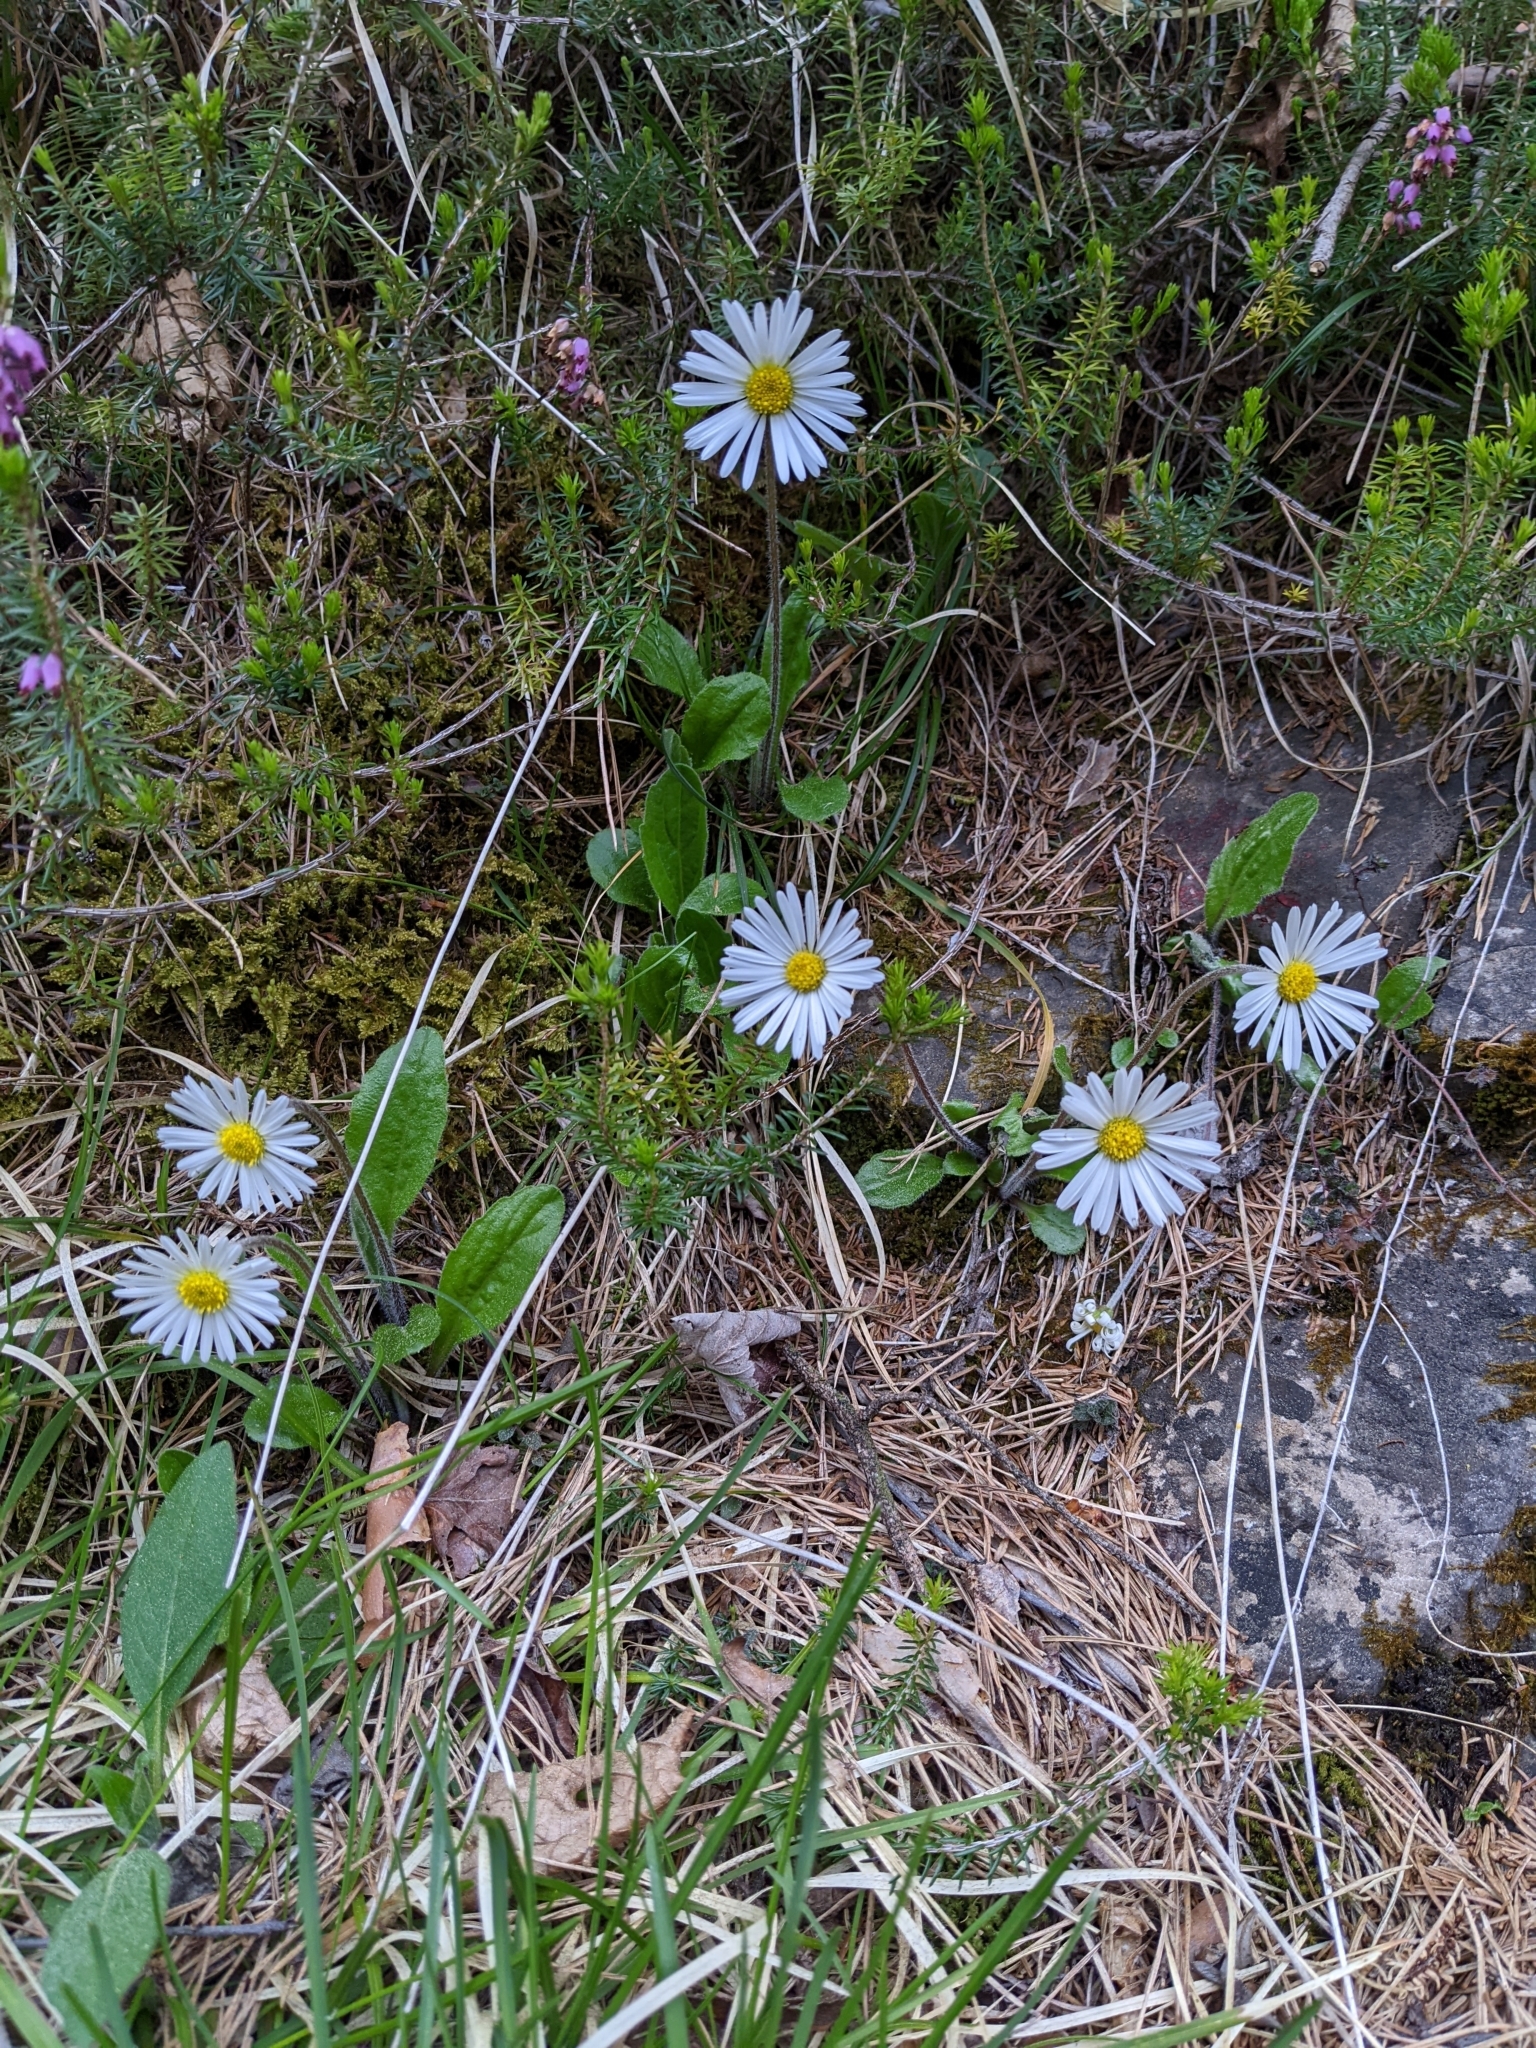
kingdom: Plantae
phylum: Tracheophyta
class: Magnoliopsida
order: Asterales
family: Asteraceae
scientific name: Asteraceae
